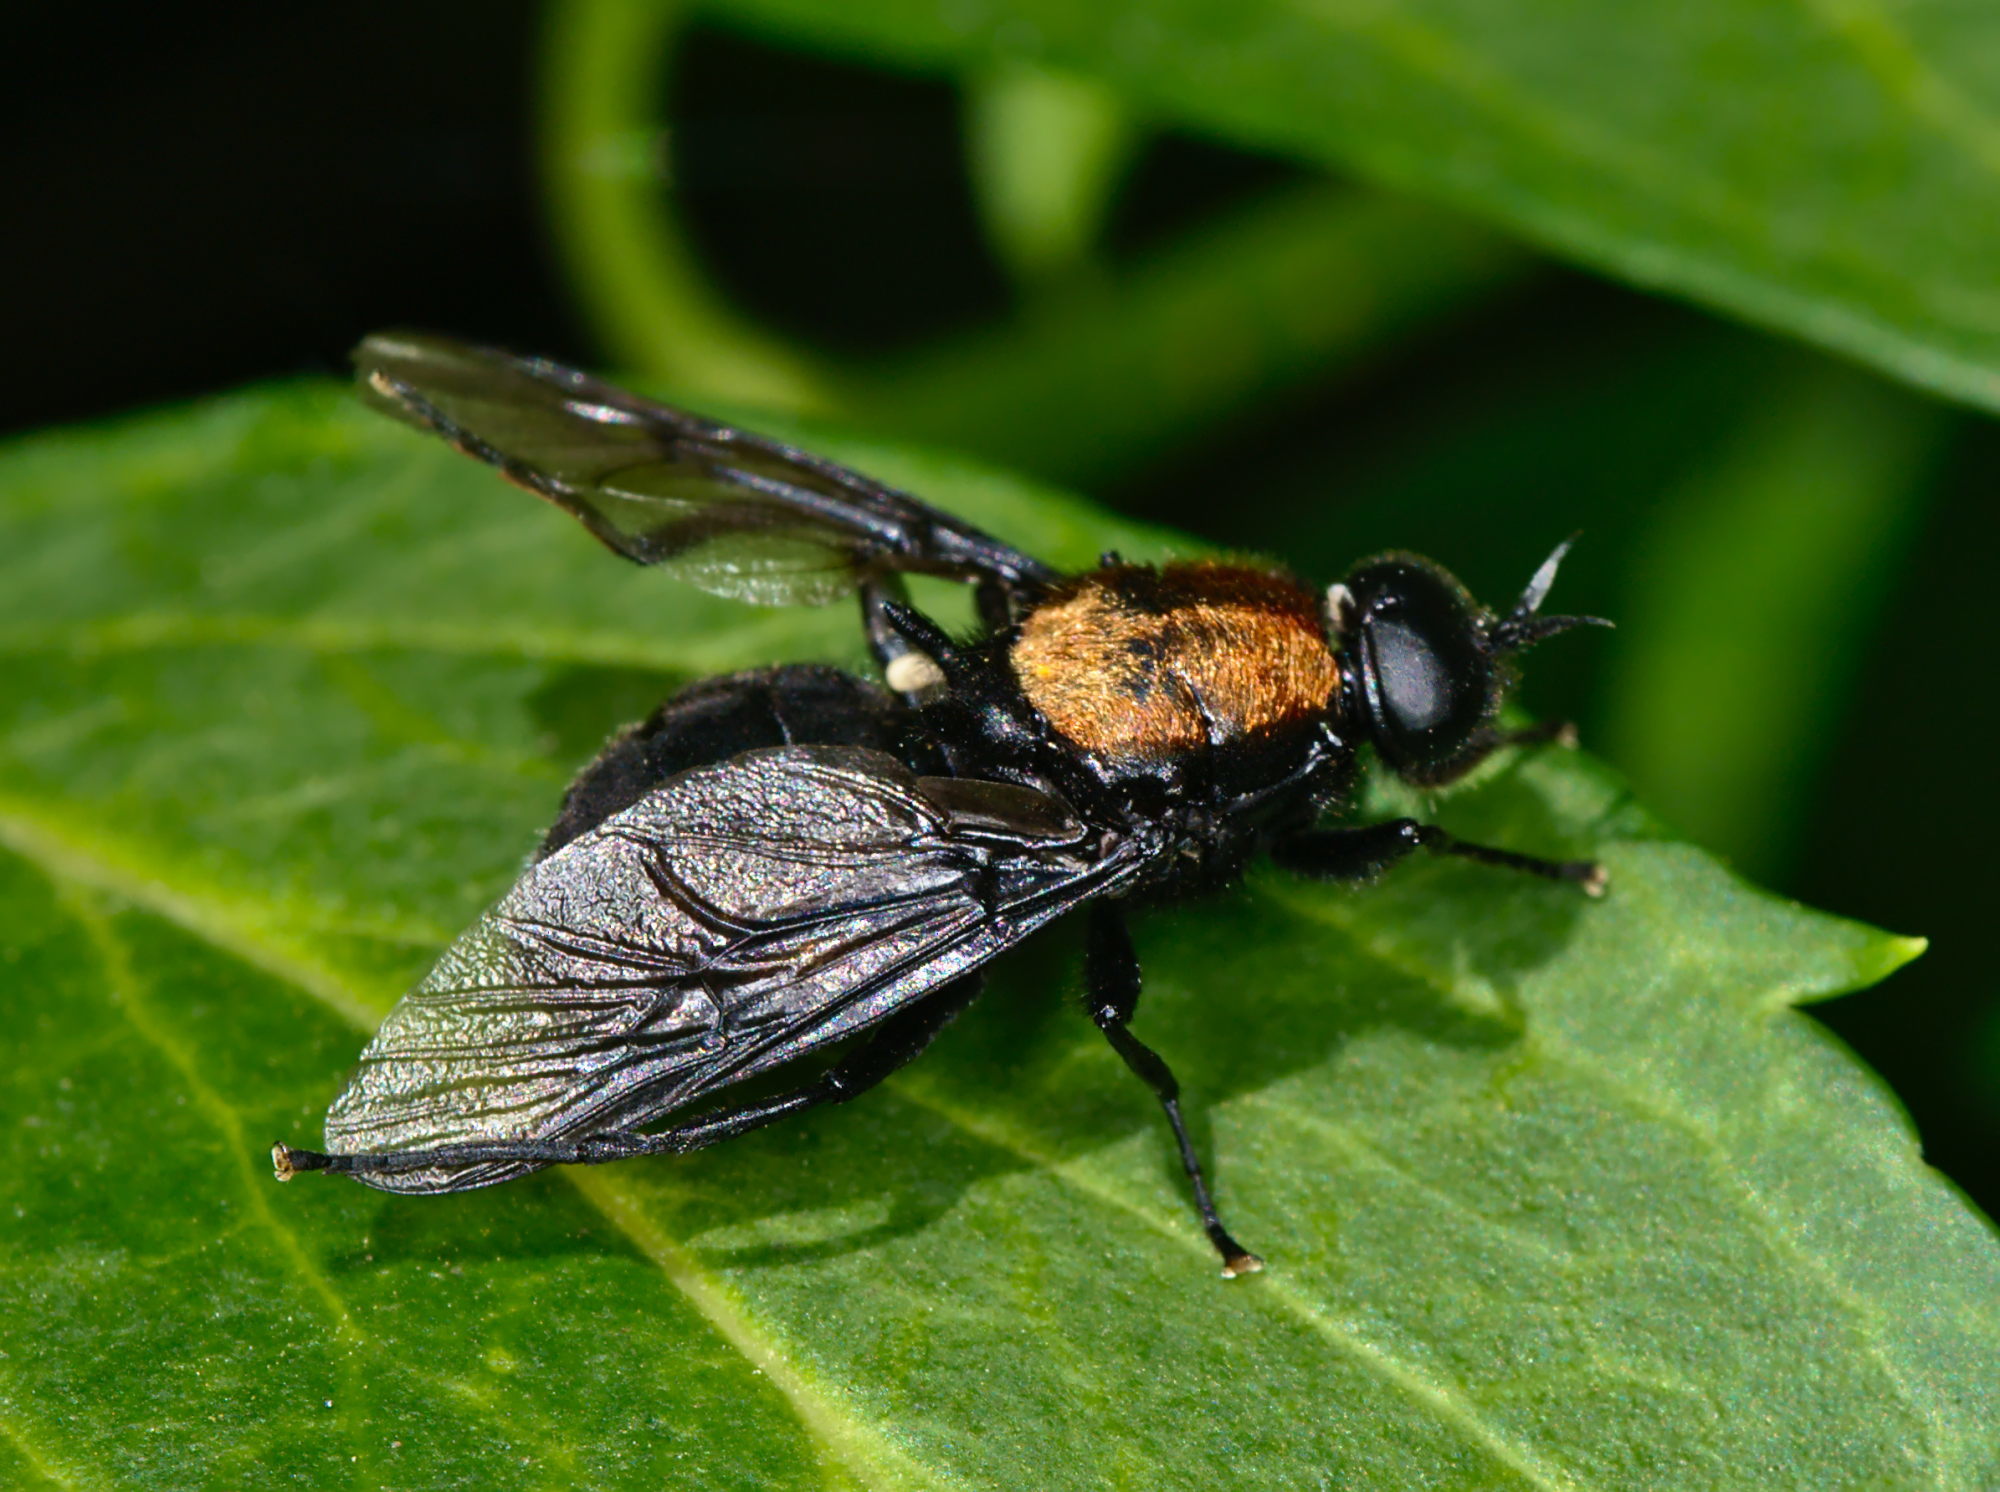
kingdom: Animalia
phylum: Arthropoda
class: Insecta
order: Diptera
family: Stratiomyidae
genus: Clitellaria
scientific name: Clitellaria ephippium
